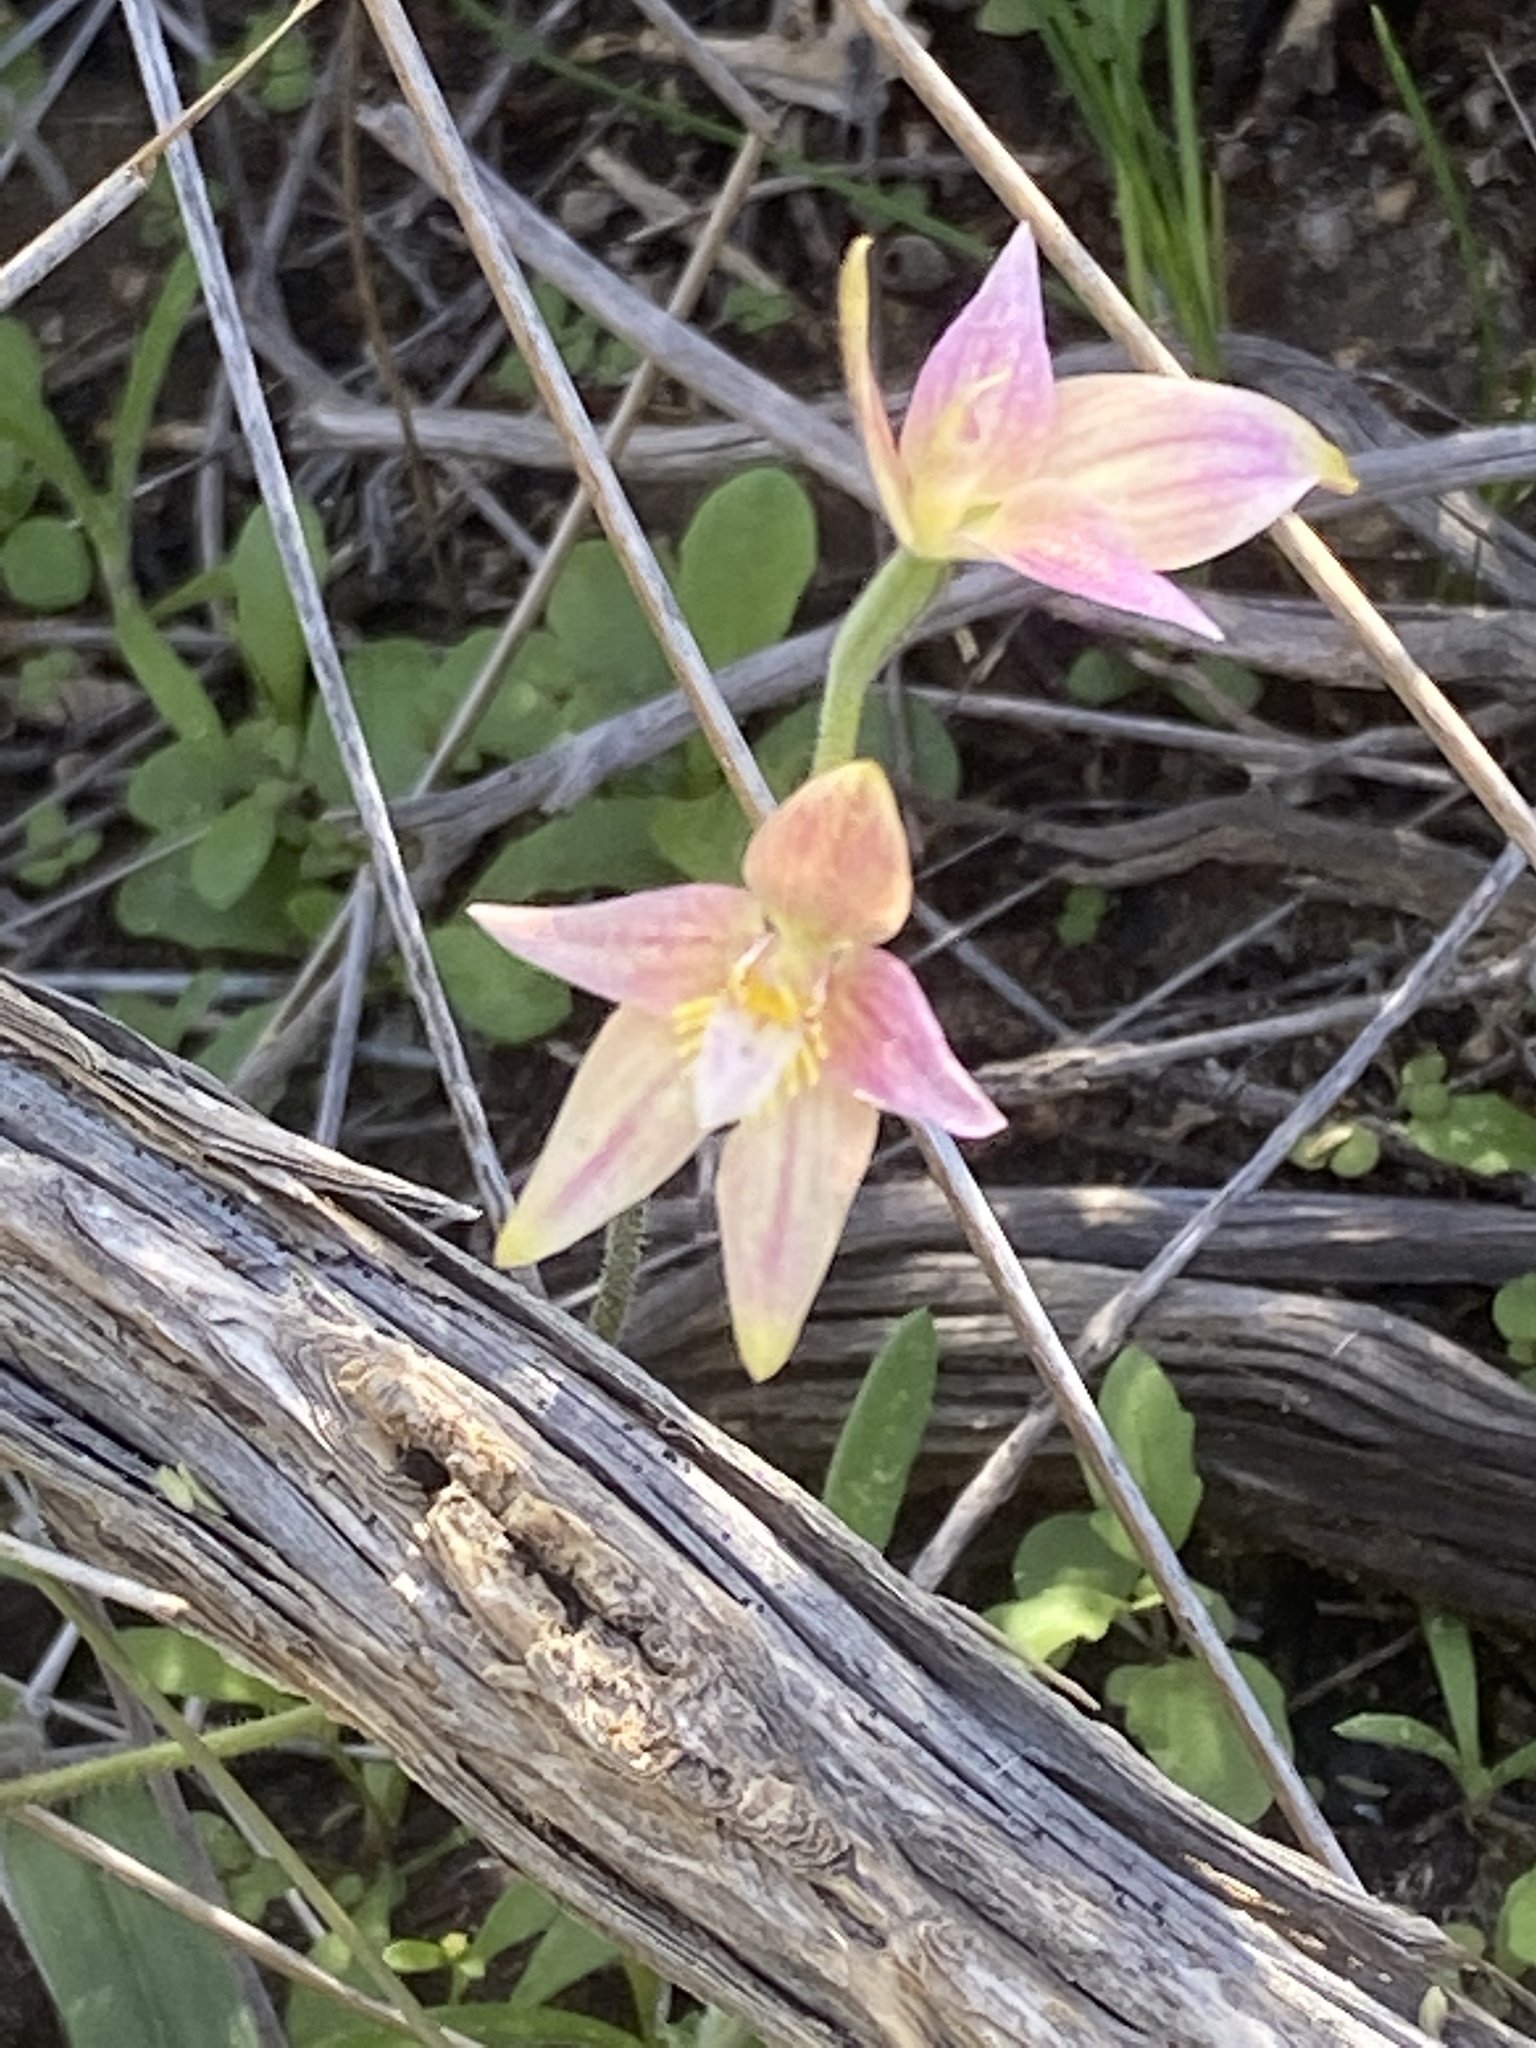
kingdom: Plantae
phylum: Tracheophyta
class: Liliopsida
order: Asparagales
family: Orchidaceae
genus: Caladenia
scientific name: Caladenia
